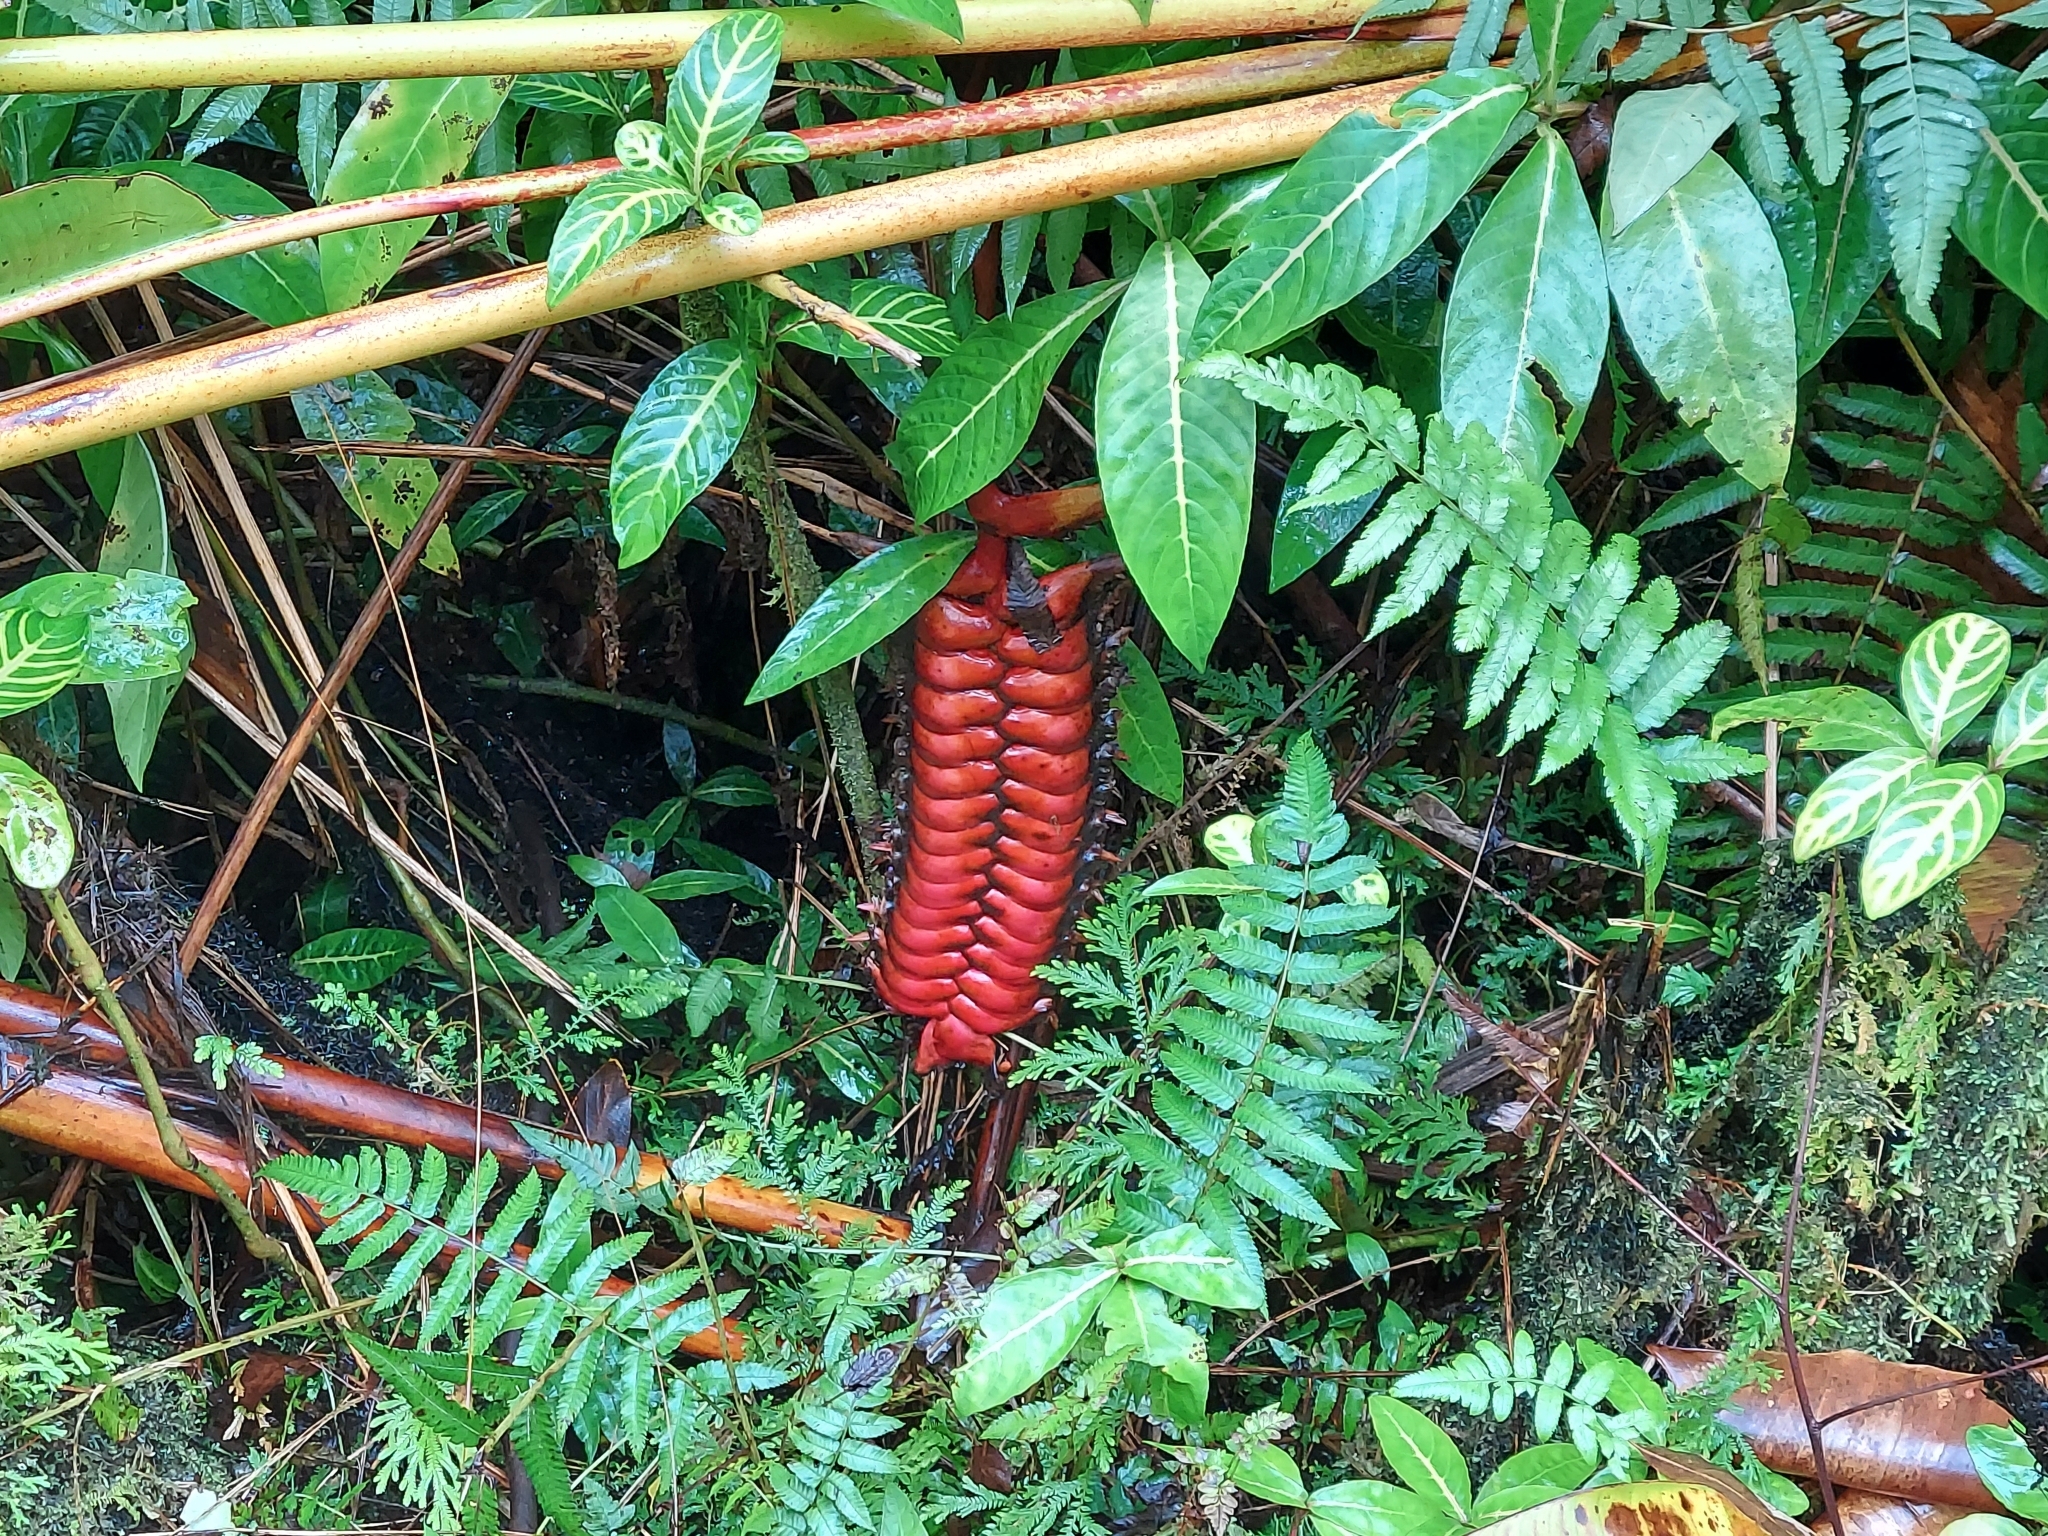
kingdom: Plantae
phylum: Tracheophyta
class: Liliopsida
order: Zingiberales
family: Heliconiaceae
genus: Heliconia
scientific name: Heliconia mariae
